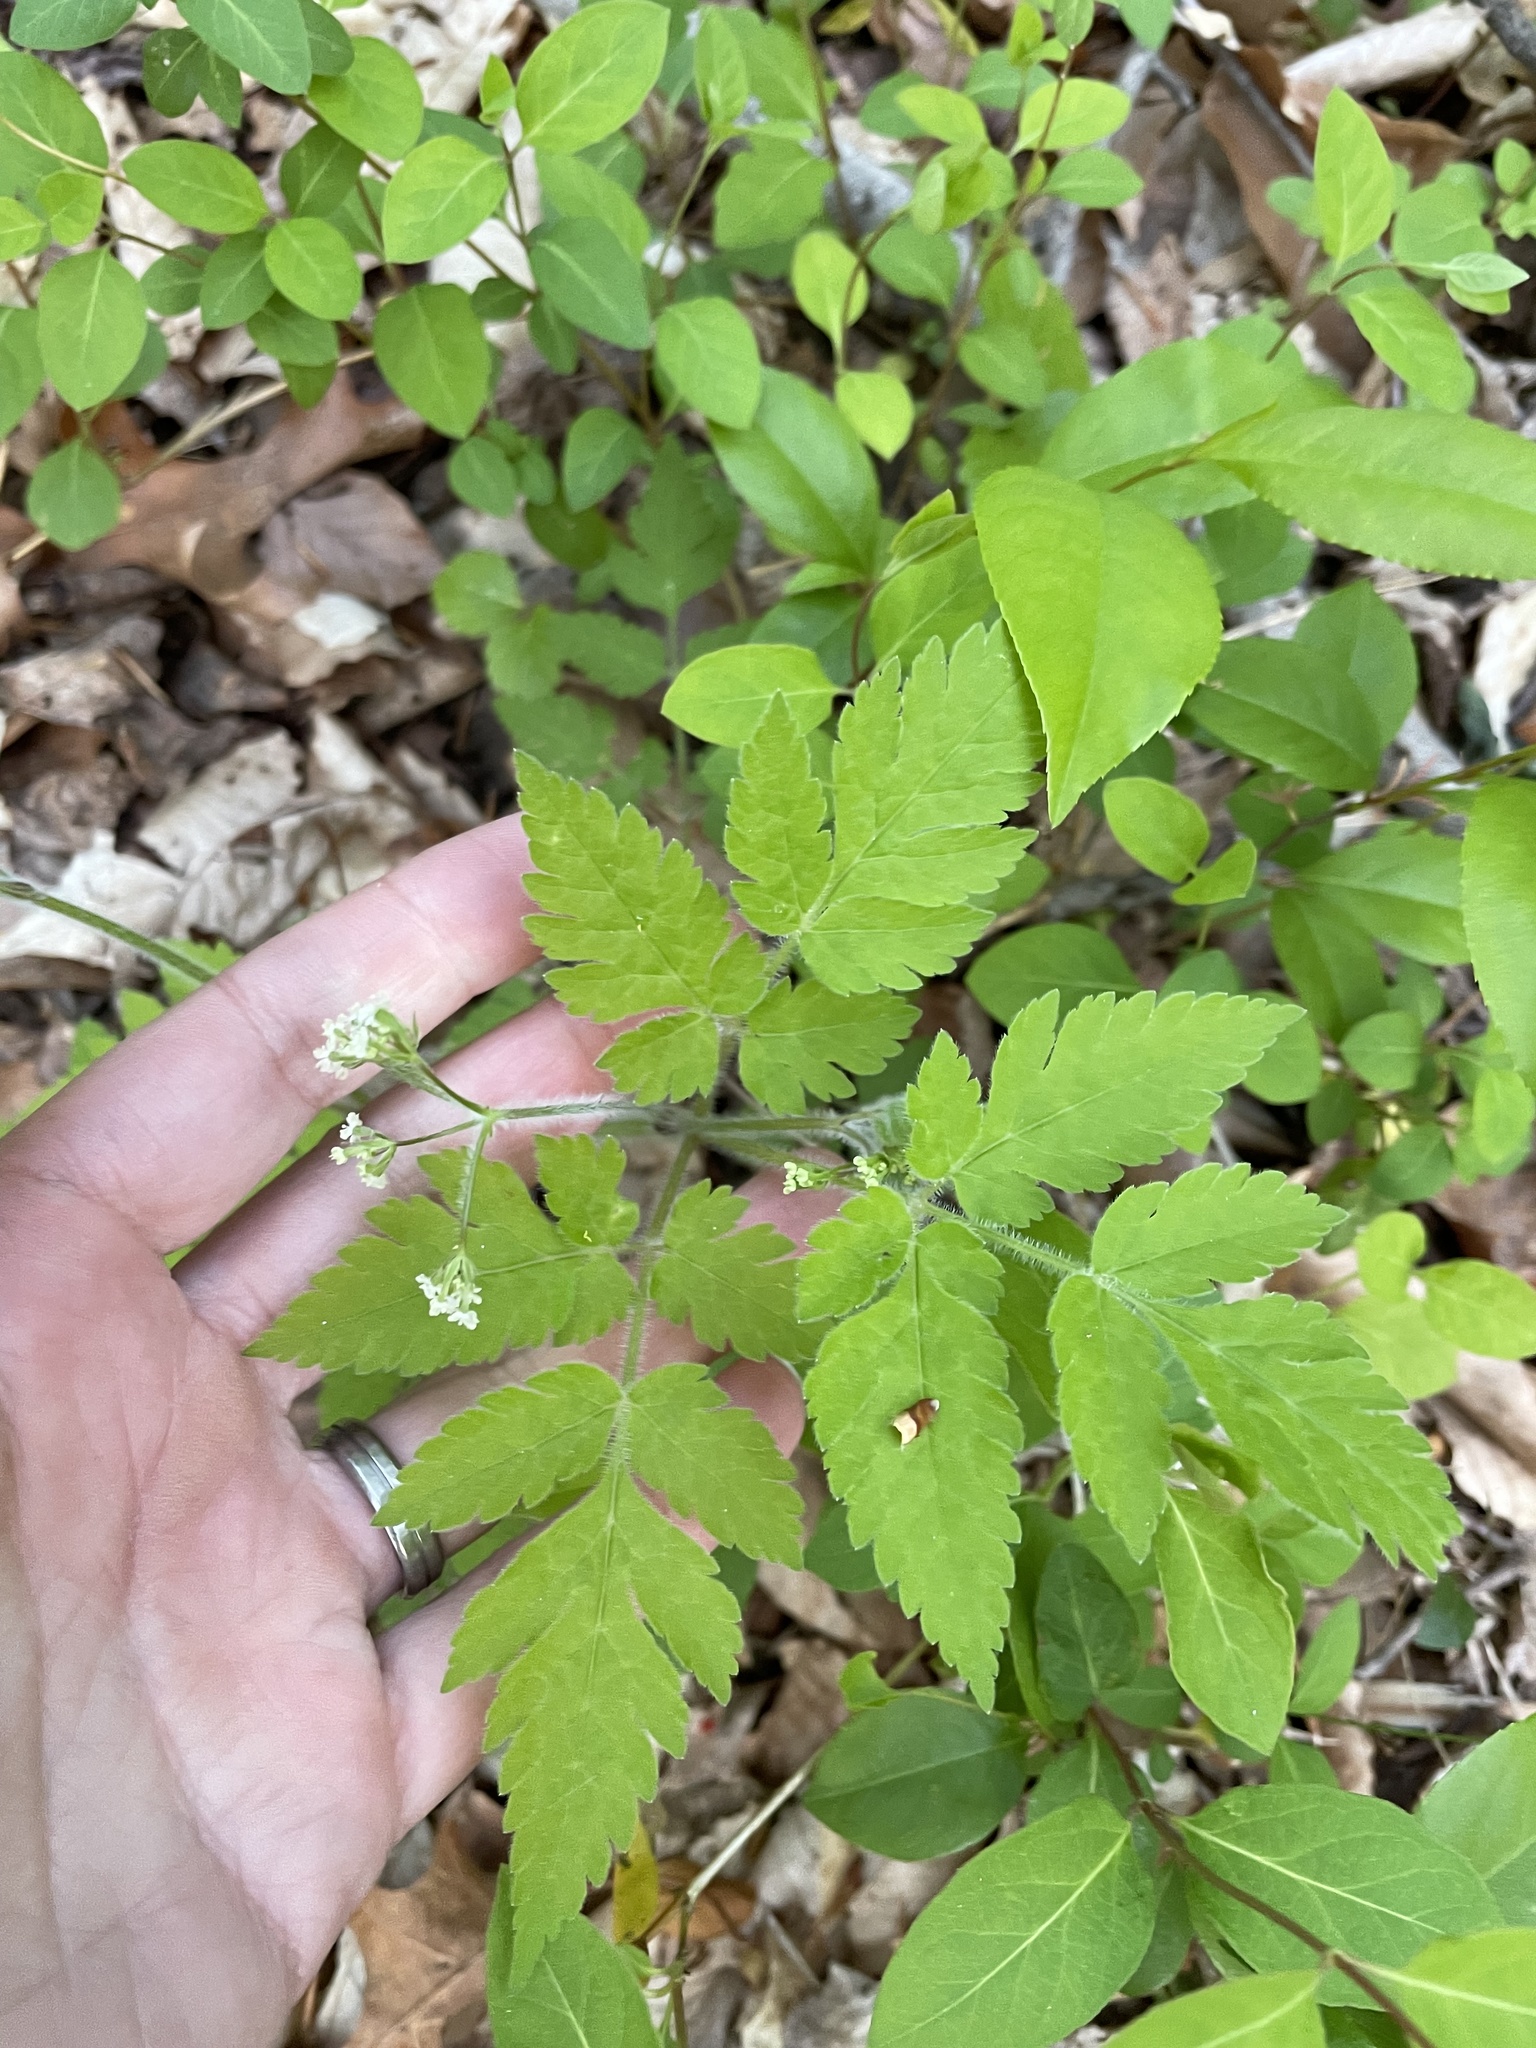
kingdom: Plantae
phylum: Tracheophyta
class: Magnoliopsida
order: Apiales
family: Apiaceae
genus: Osmorhiza
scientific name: Osmorhiza claytonii
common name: Hairy sweet cicely
